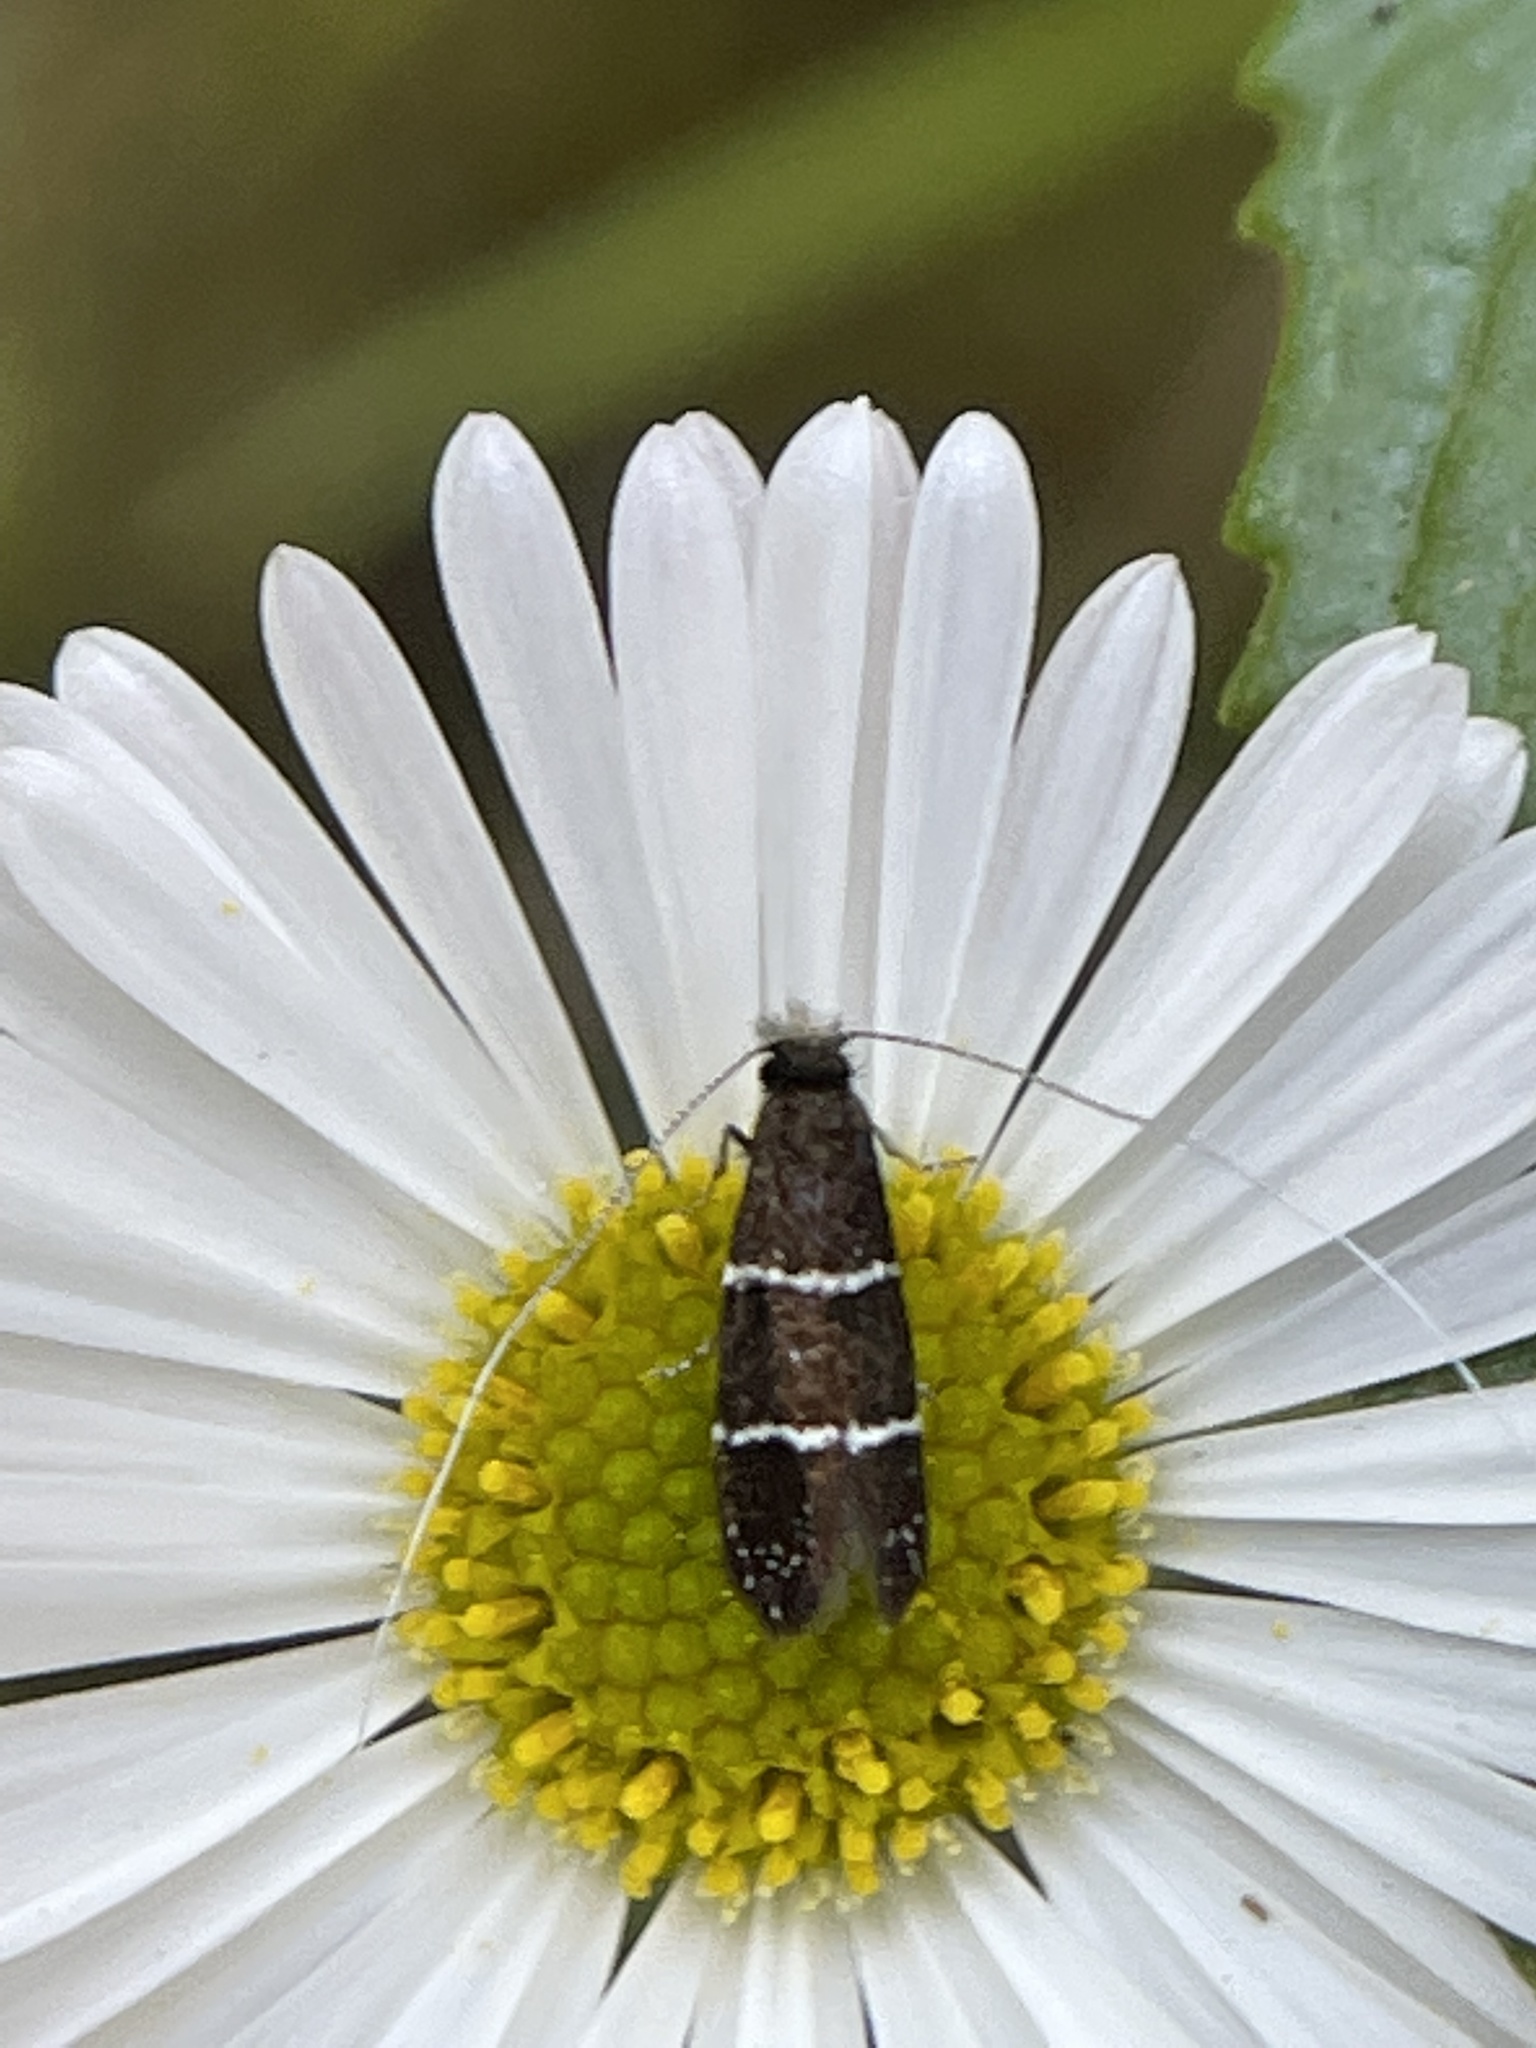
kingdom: Animalia
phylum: Arthropoda
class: Insecta
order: Lepidoptera
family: Adelidae
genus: Adela
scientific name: Adela septentrionella
